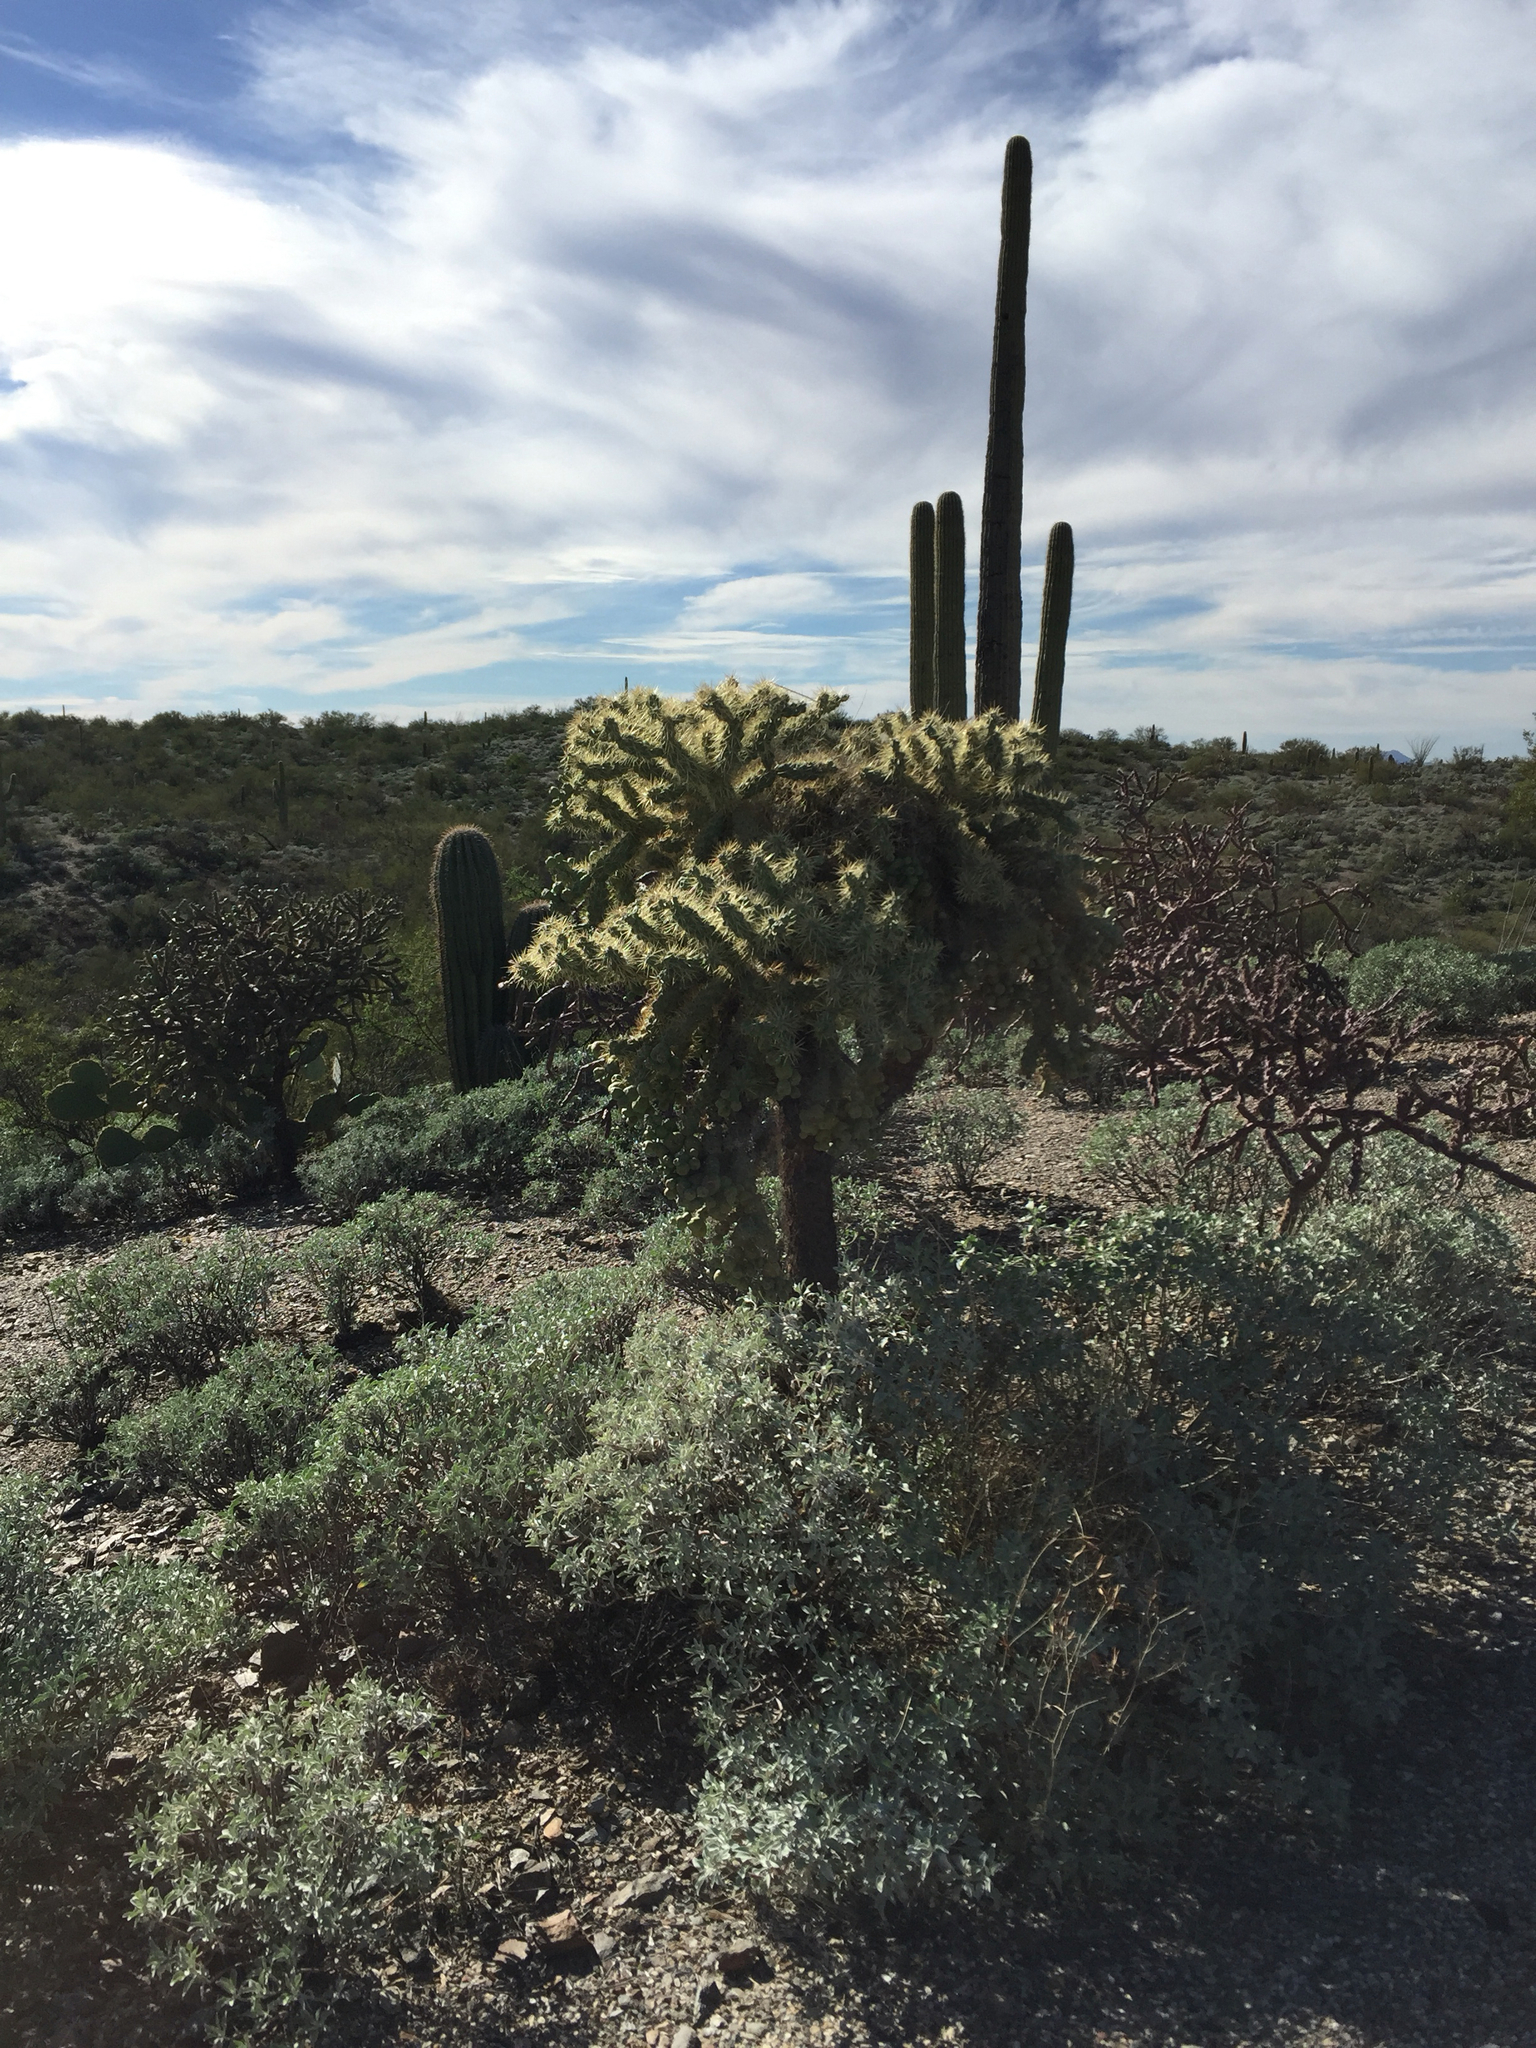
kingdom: Plantae
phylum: Tracheophyta
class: Magnoliopsida
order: Caryophyllales
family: Cactaceae
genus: Cylindropuntia
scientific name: Cylindropuntia fulgida
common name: Jumping cholla
